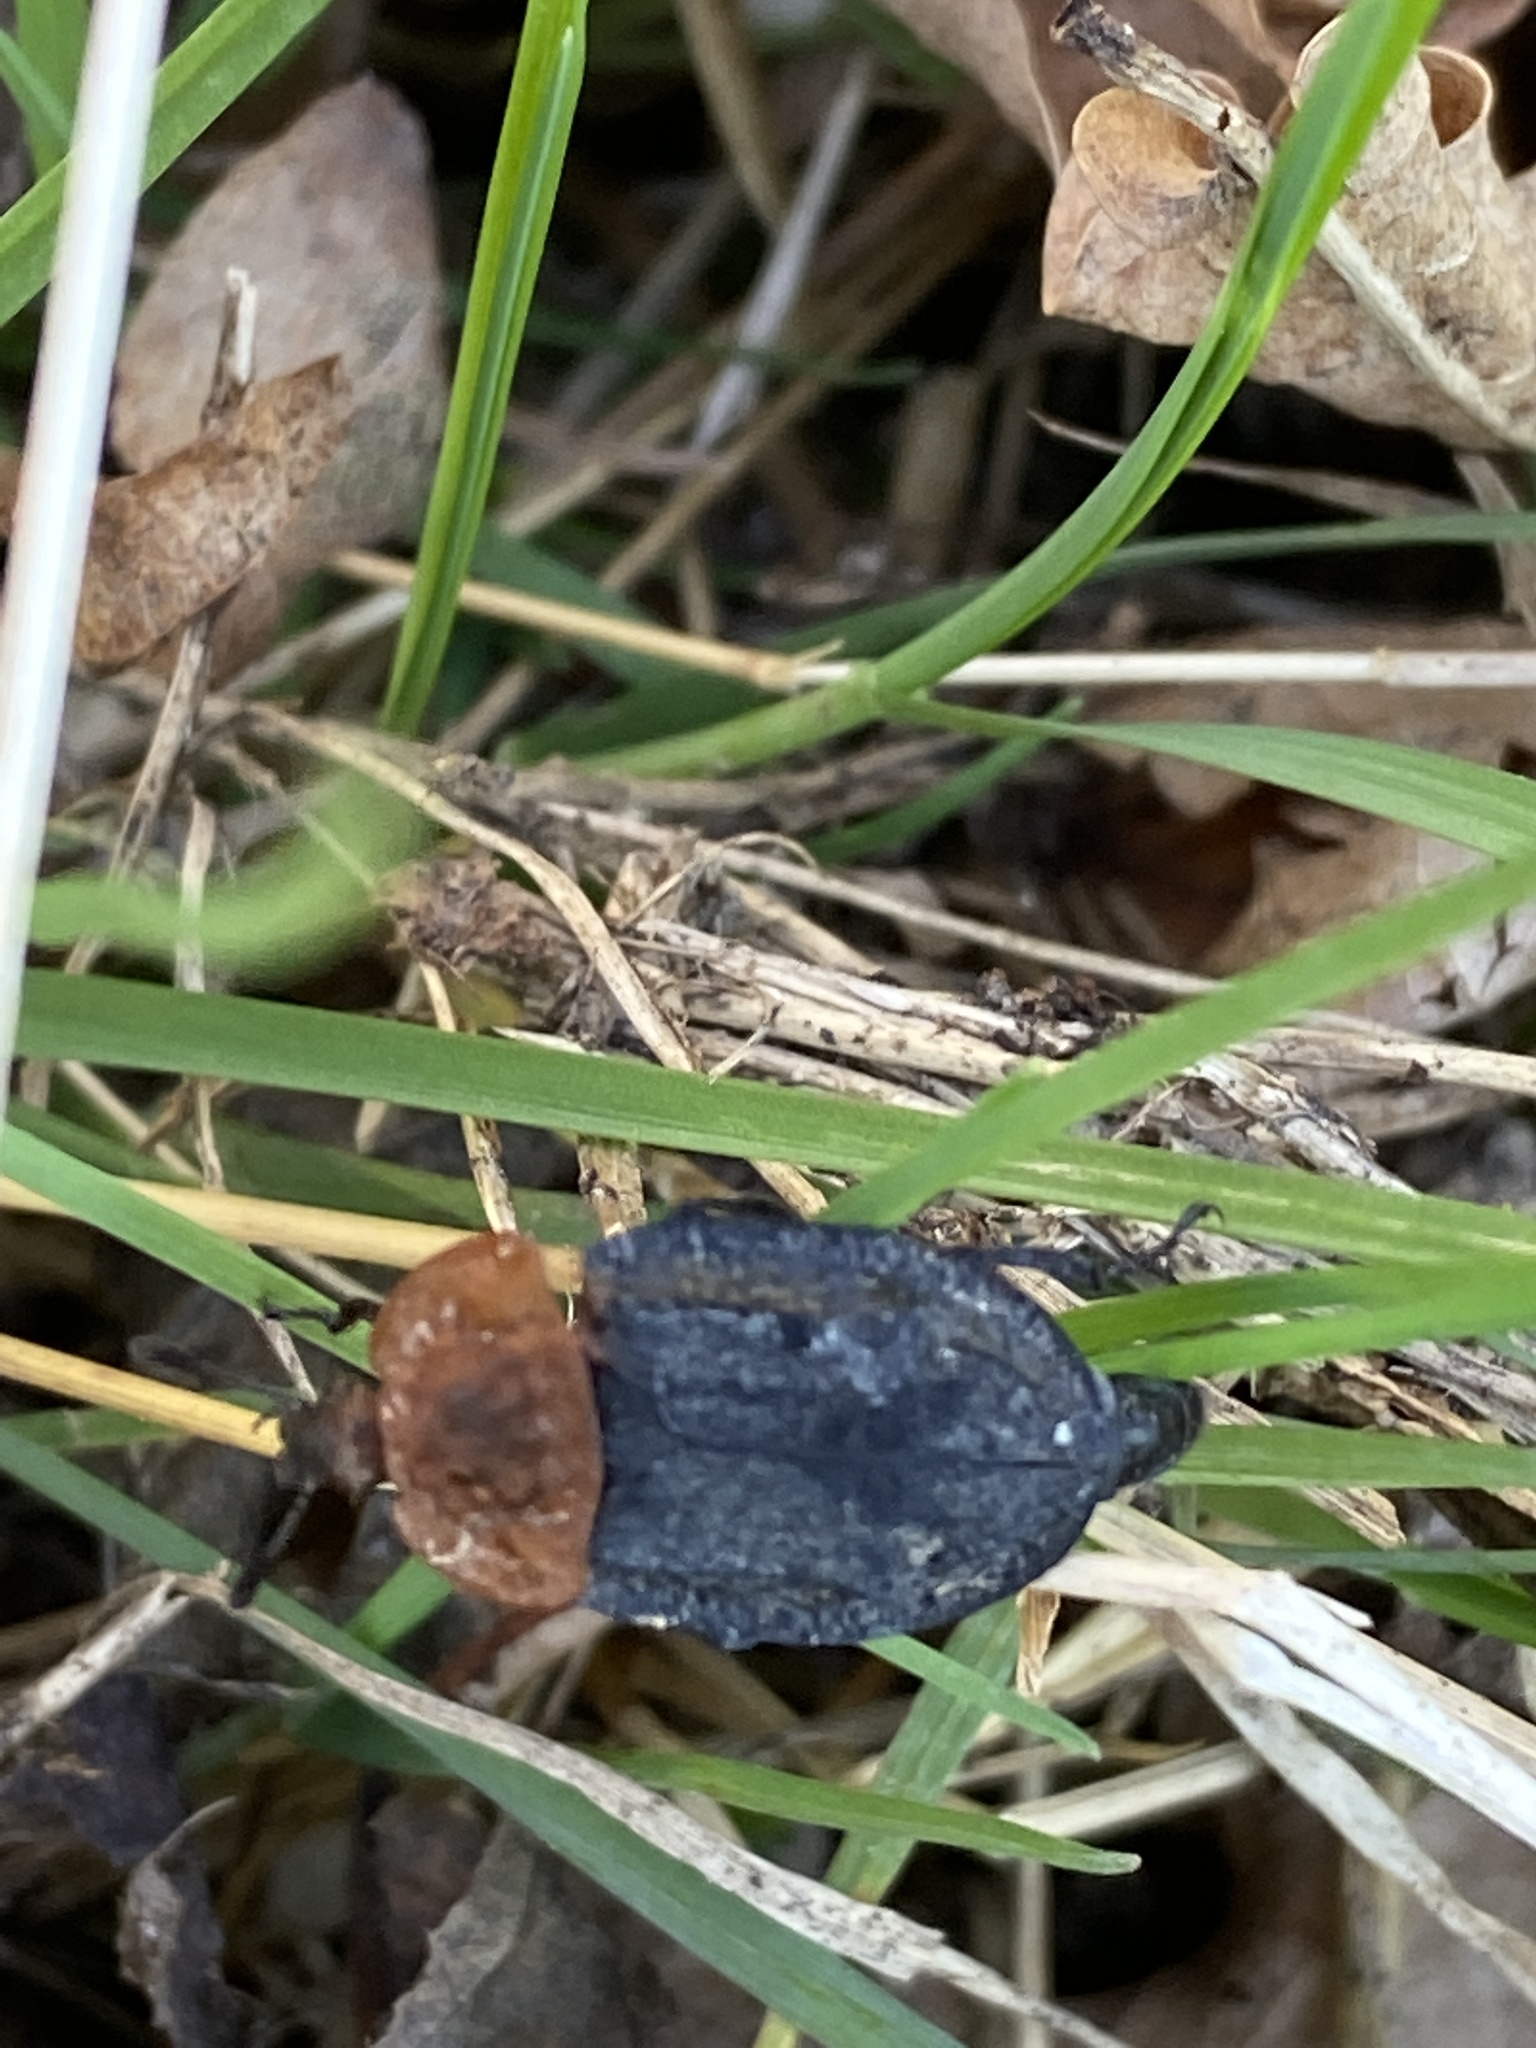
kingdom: Animalia
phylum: Arthropoda
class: Insecta
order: Coleoptera
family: Staphylinidae
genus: Oiceoptoma
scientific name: Oiceoptoma thoracicum
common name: Red-breasted carrion beetle
